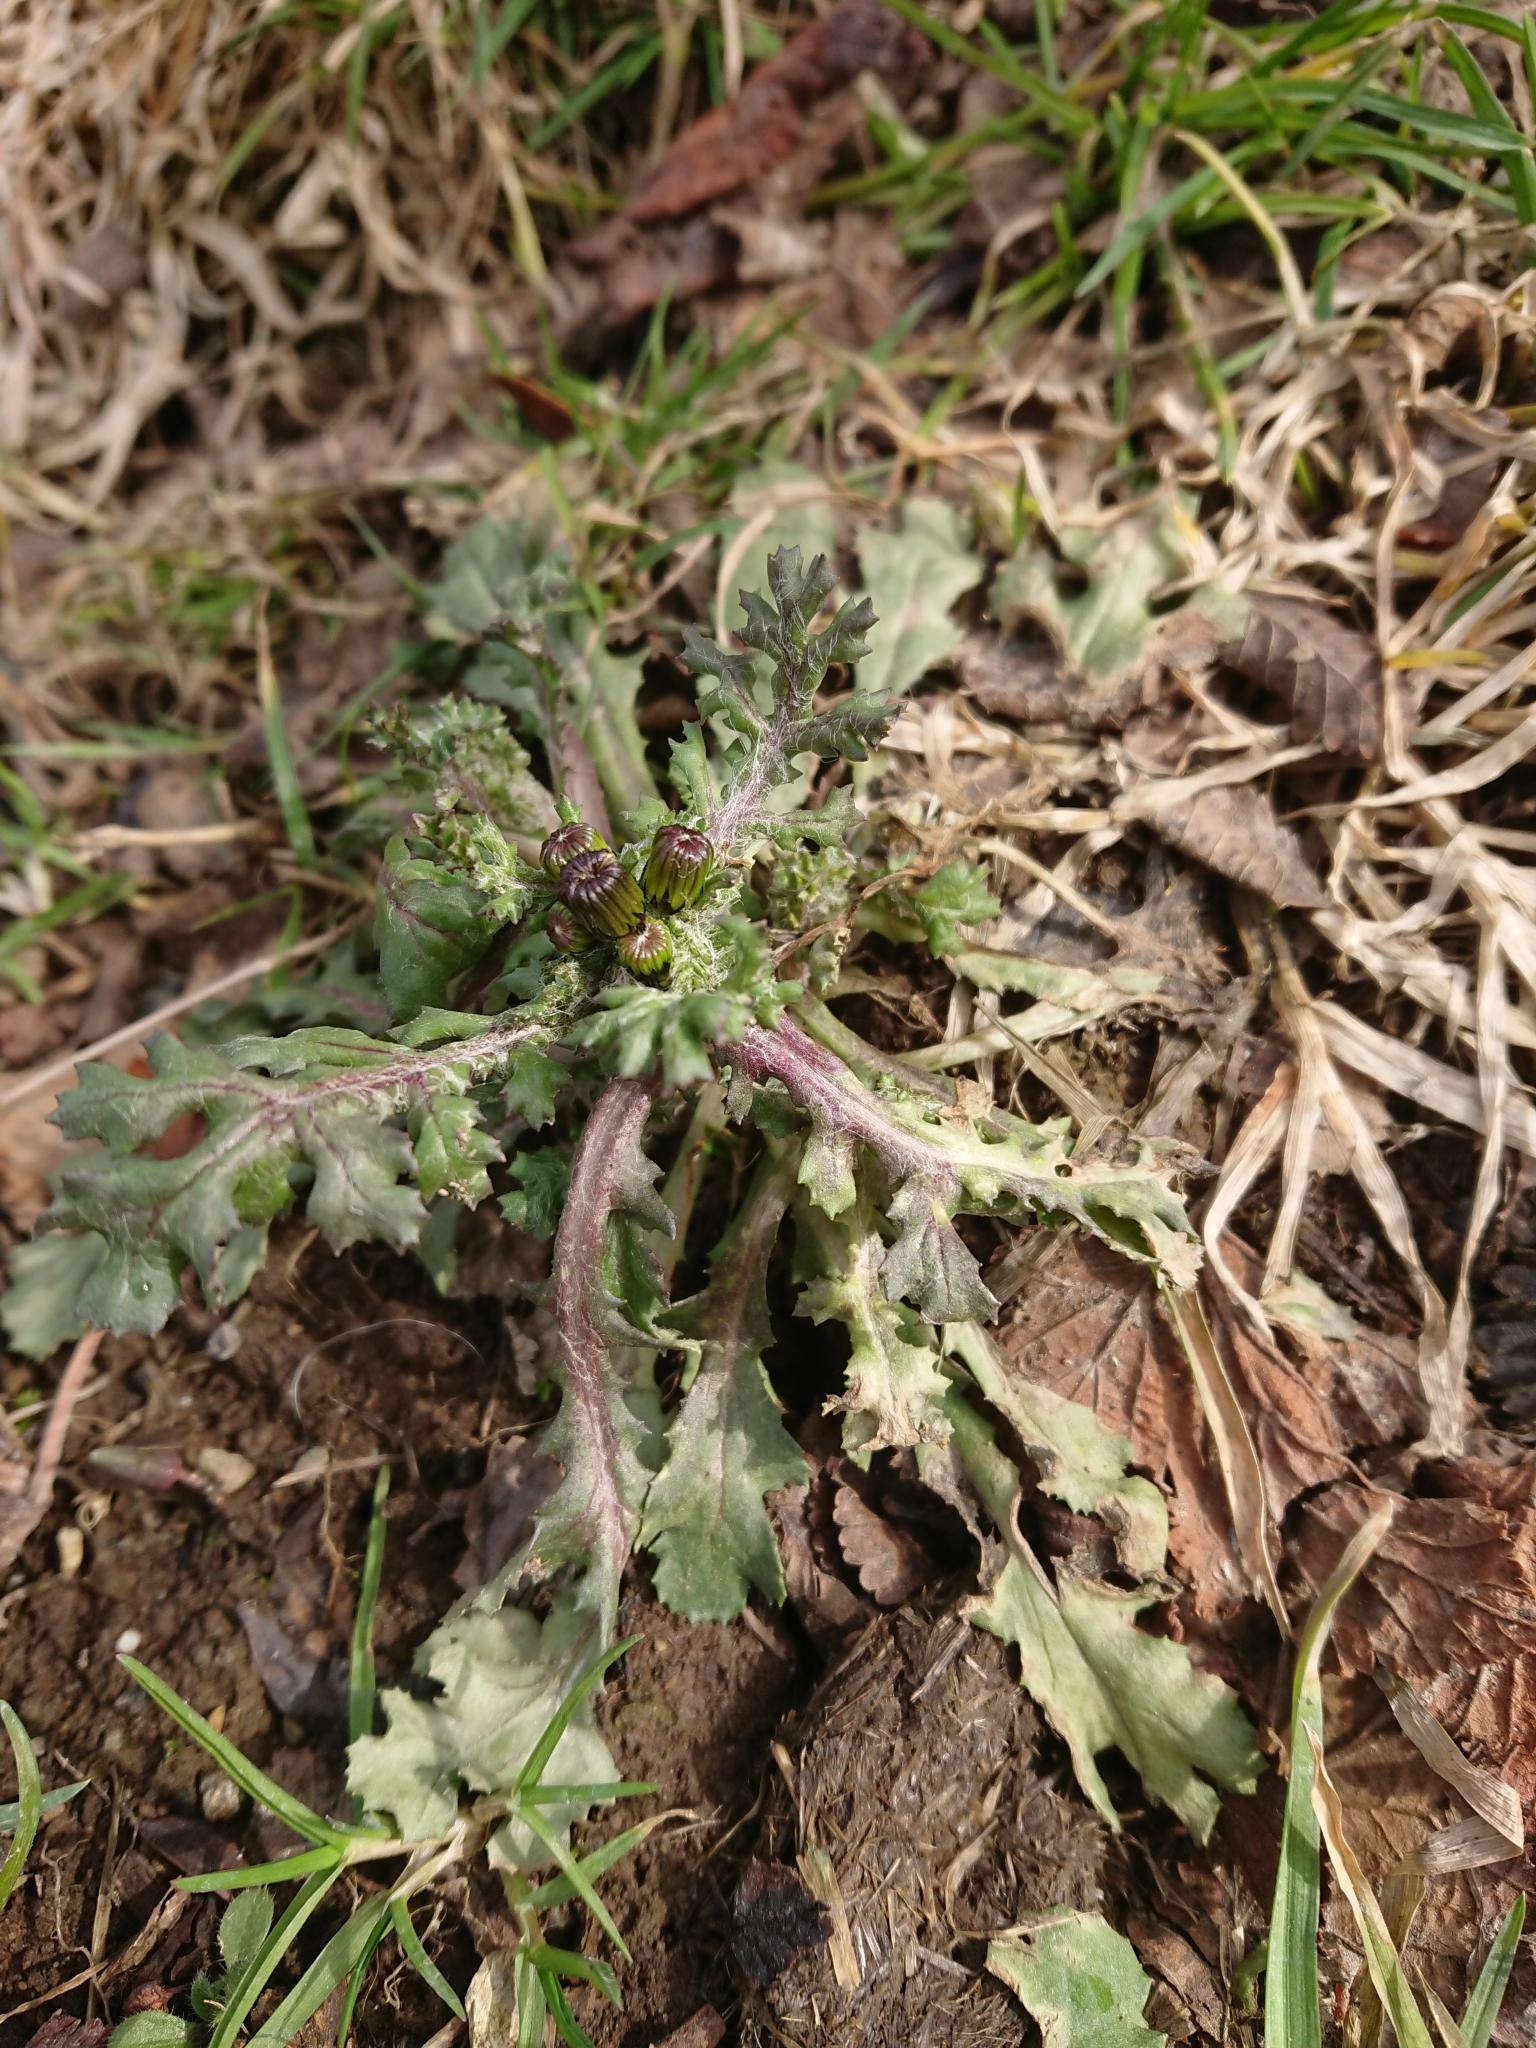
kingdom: Plantae
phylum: Tracheophyta
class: Magnoliopsida
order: Asterales
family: Asteraceae
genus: Senecio
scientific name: Senecio vulgaris
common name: Old-man-in-the-spring
